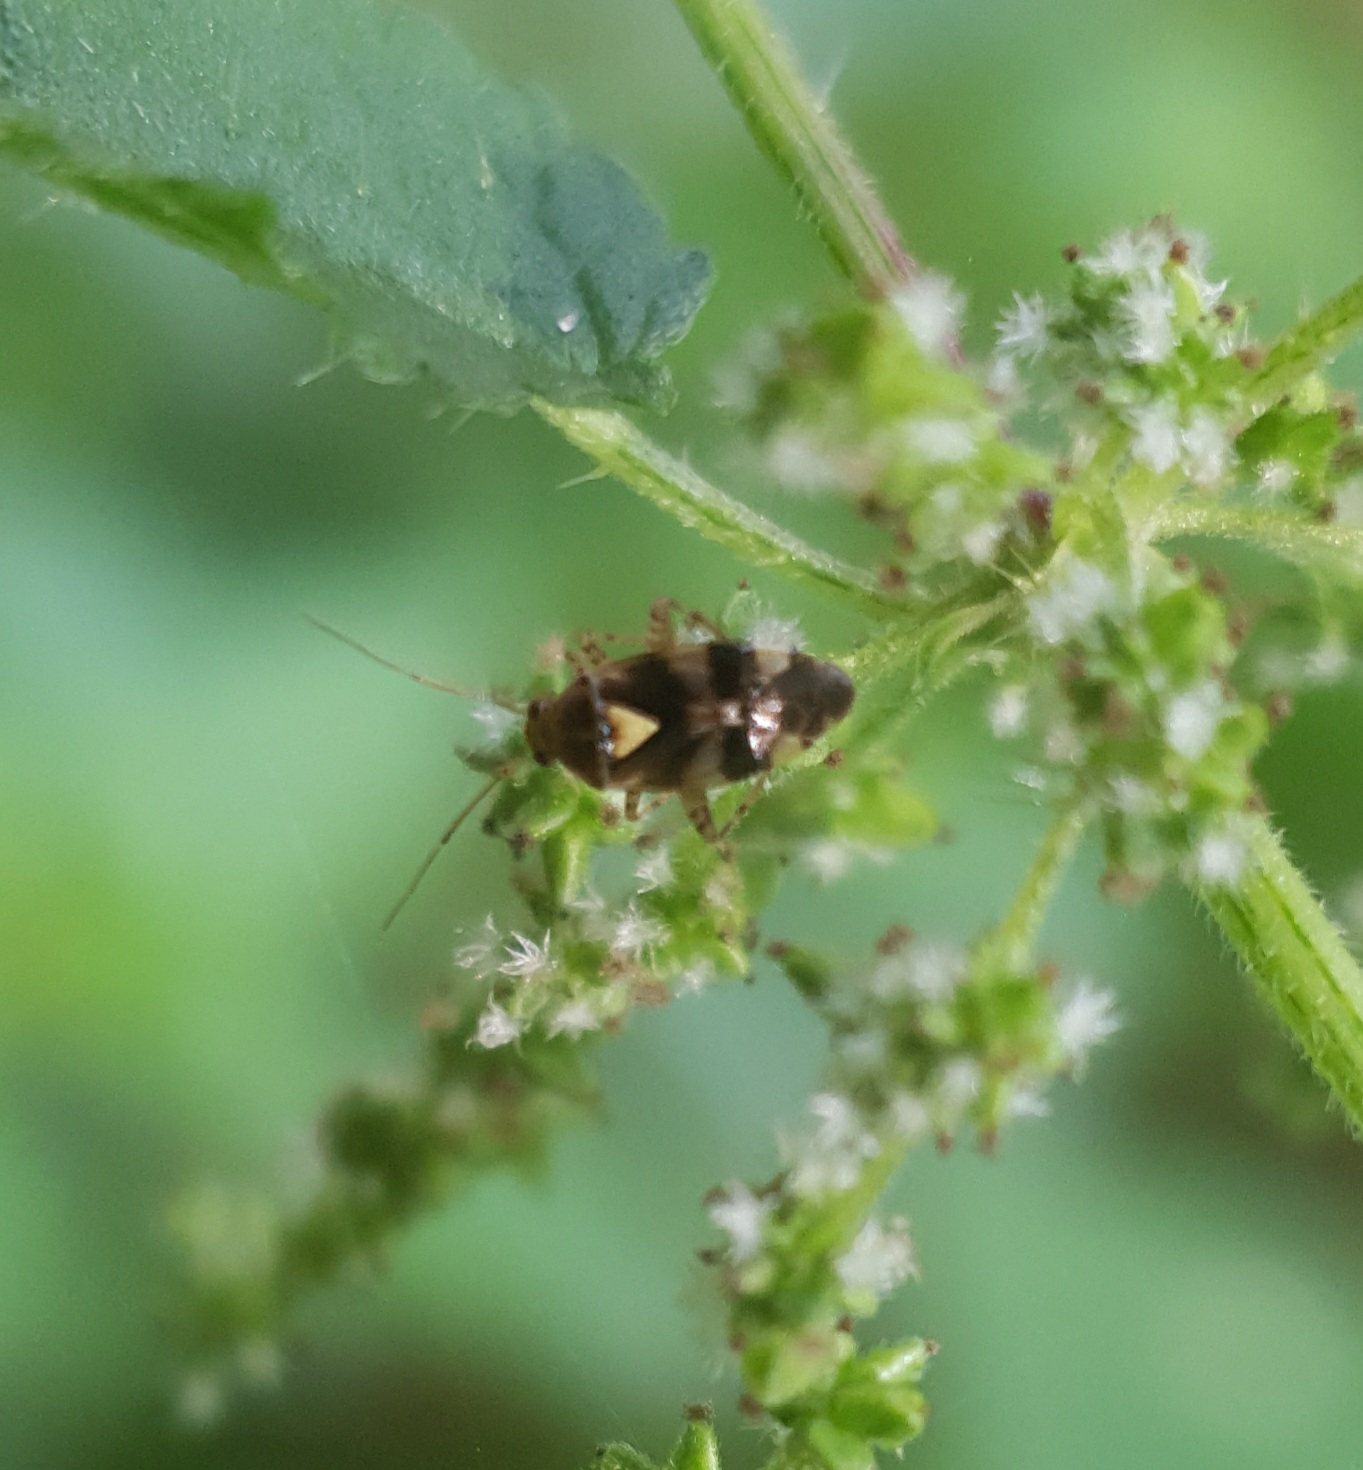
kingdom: Animalia
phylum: Arthropoda
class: Insecta
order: Hemiptera
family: Miridae
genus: Liocoris
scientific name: Liocoris tripustulatus
